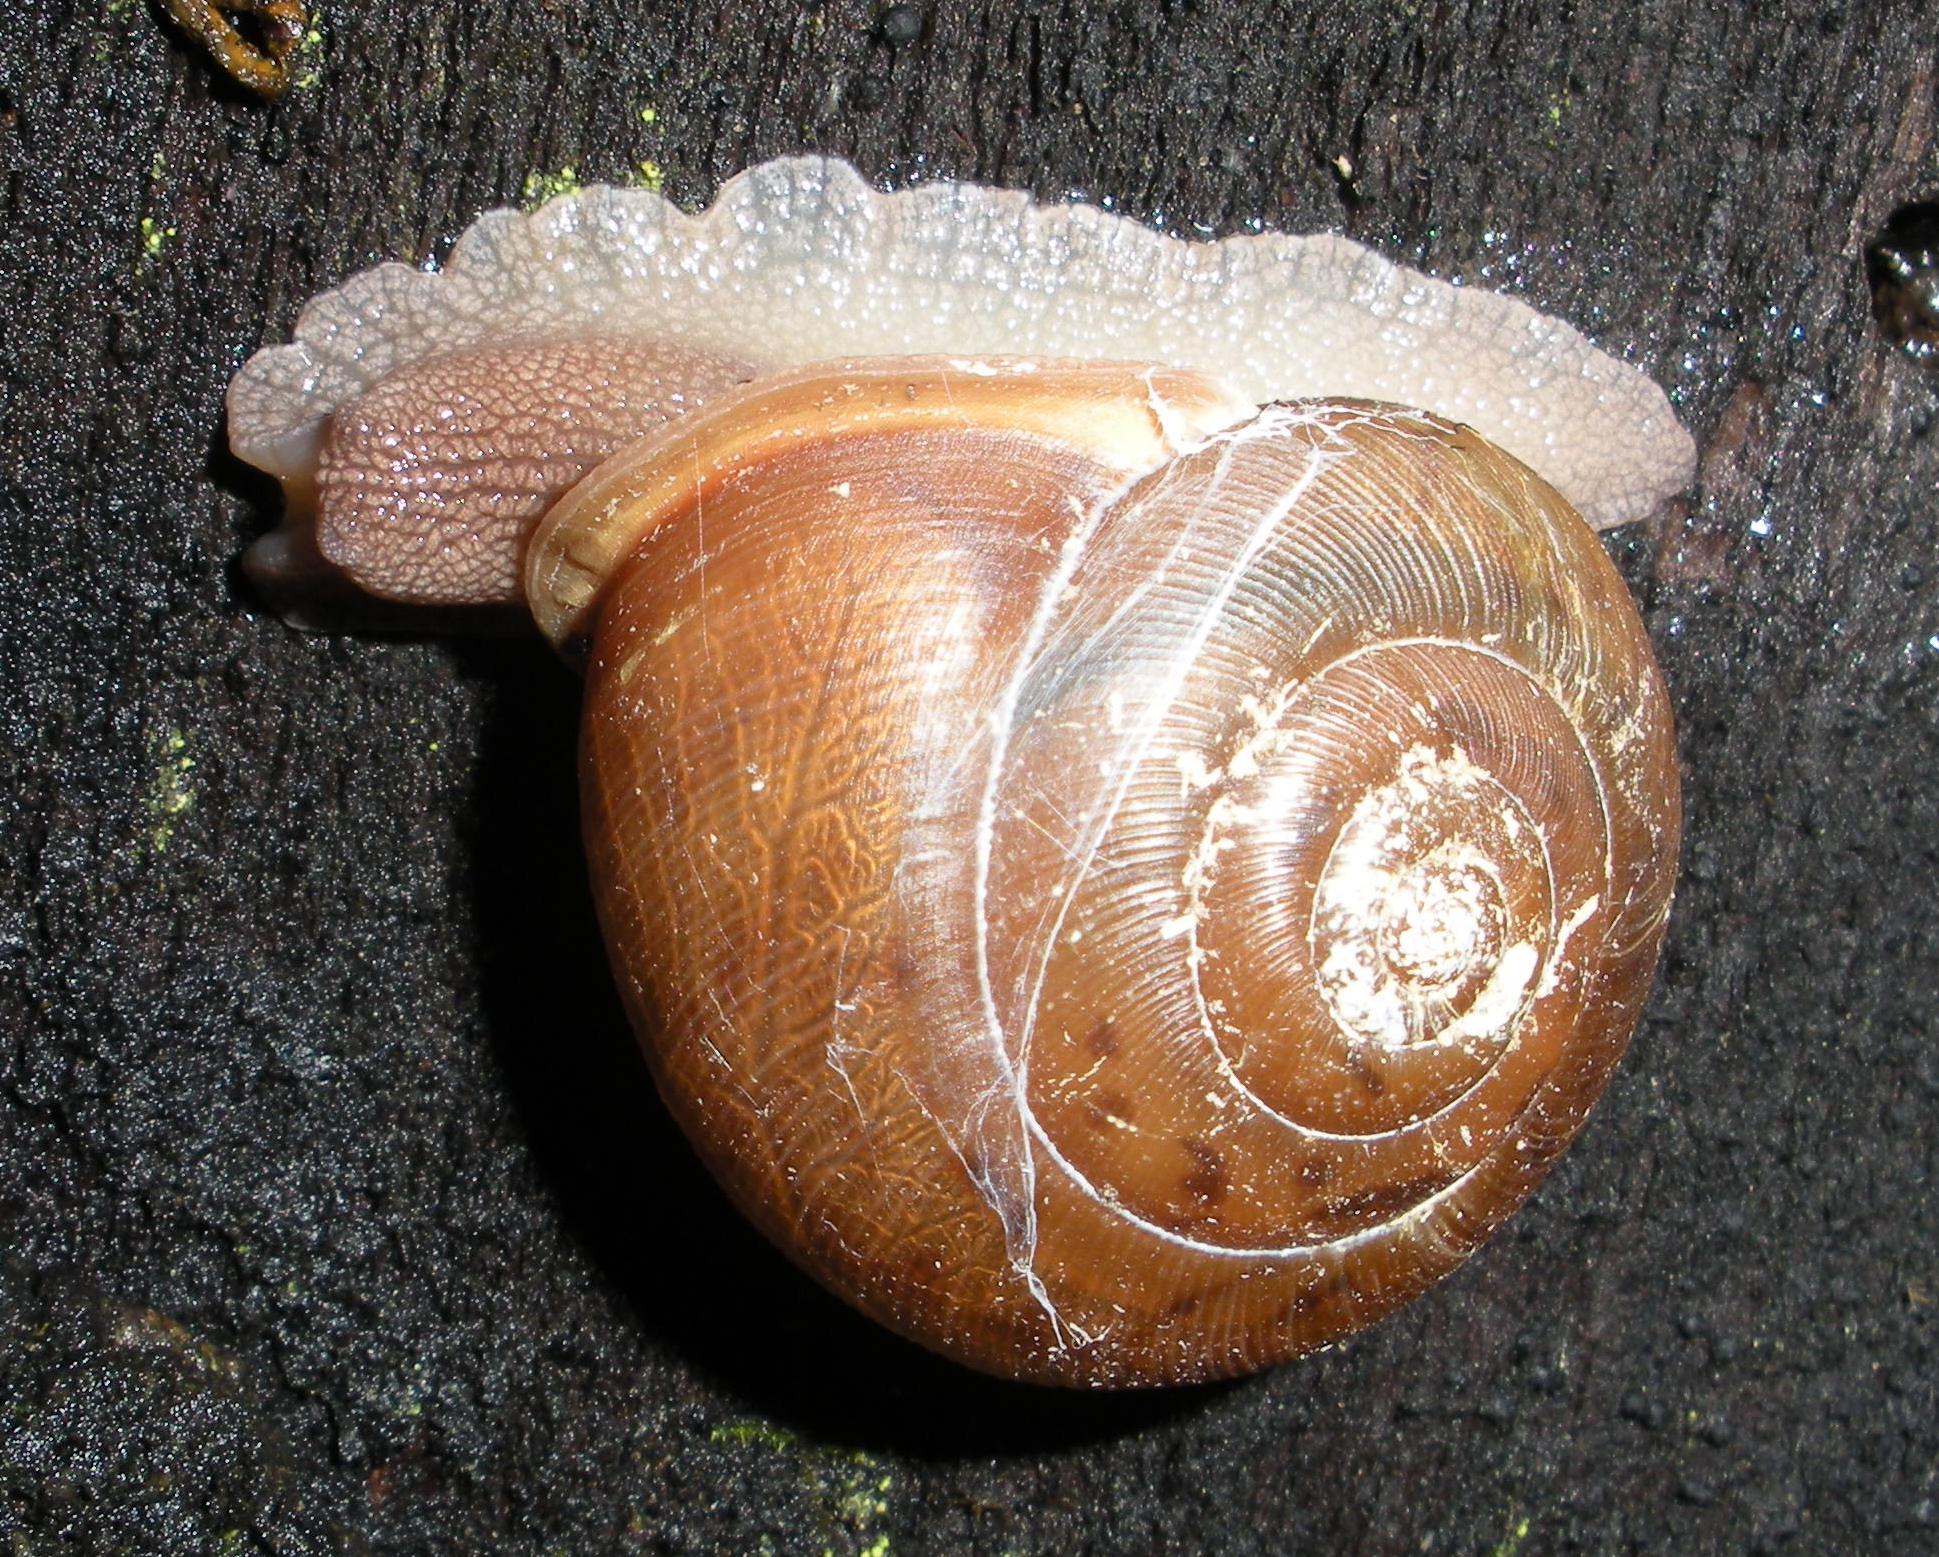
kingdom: Animalia
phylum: Mollusca
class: Gastropoda
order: Stylommatophora
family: Polygyridae
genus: Neohelix
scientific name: Neohelix albolabris
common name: Eastern whitelip
